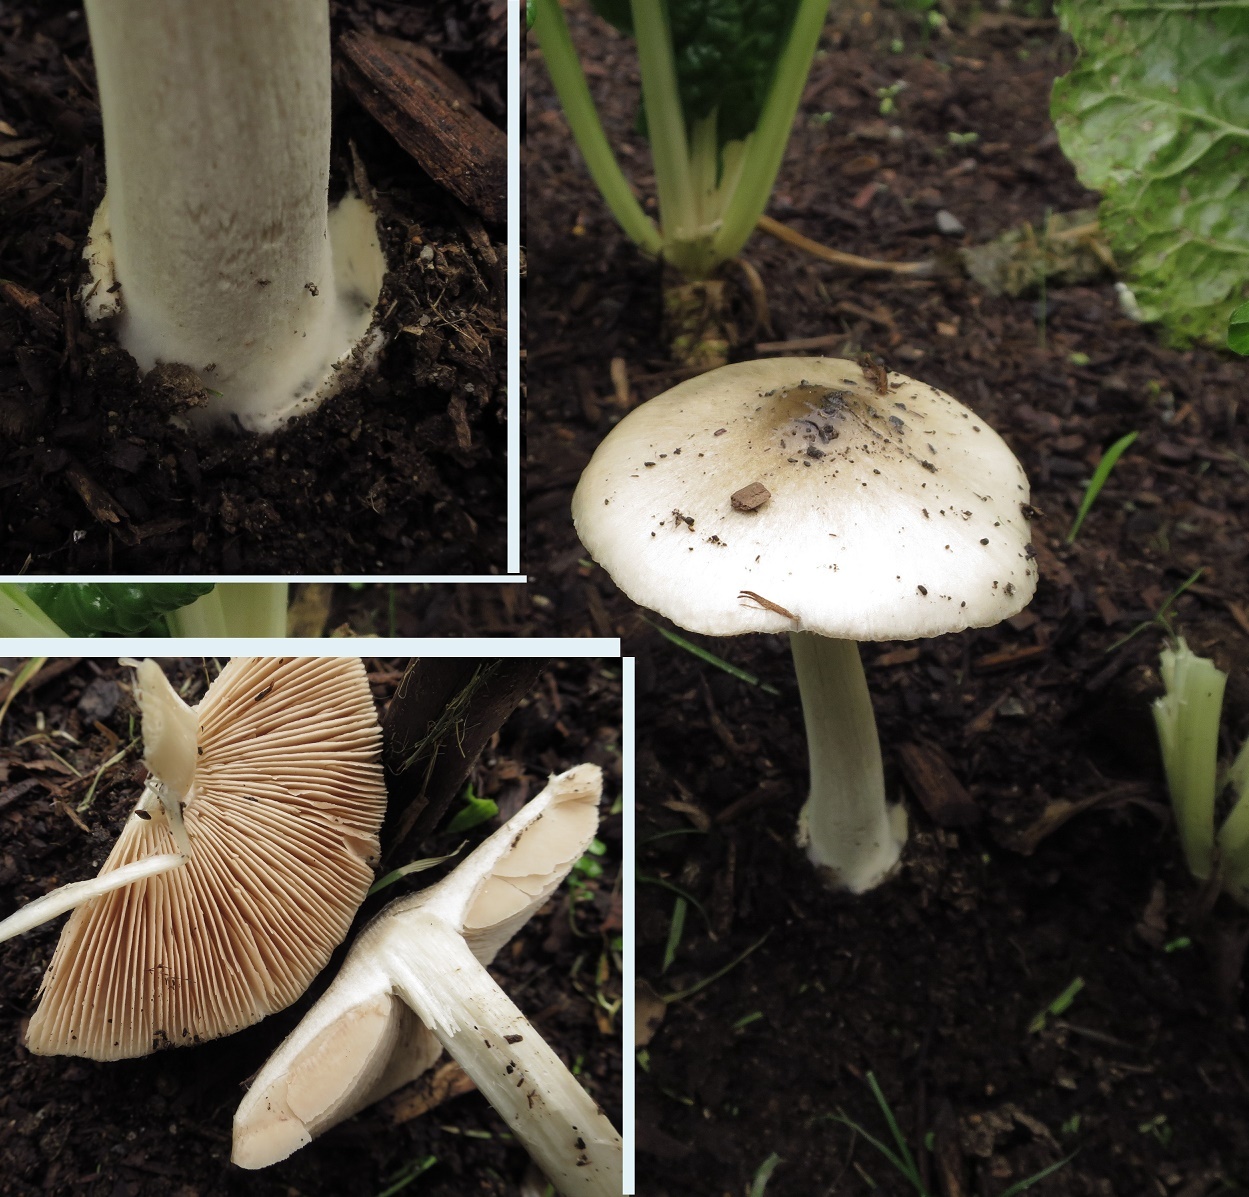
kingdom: Fungi
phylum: Basidiomycota
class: Agaricomycetes
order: Agaricales
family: Pluteaceae
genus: Volvopluteus
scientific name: Volvopluteus gloiocephalus
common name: Stubble rosegill
